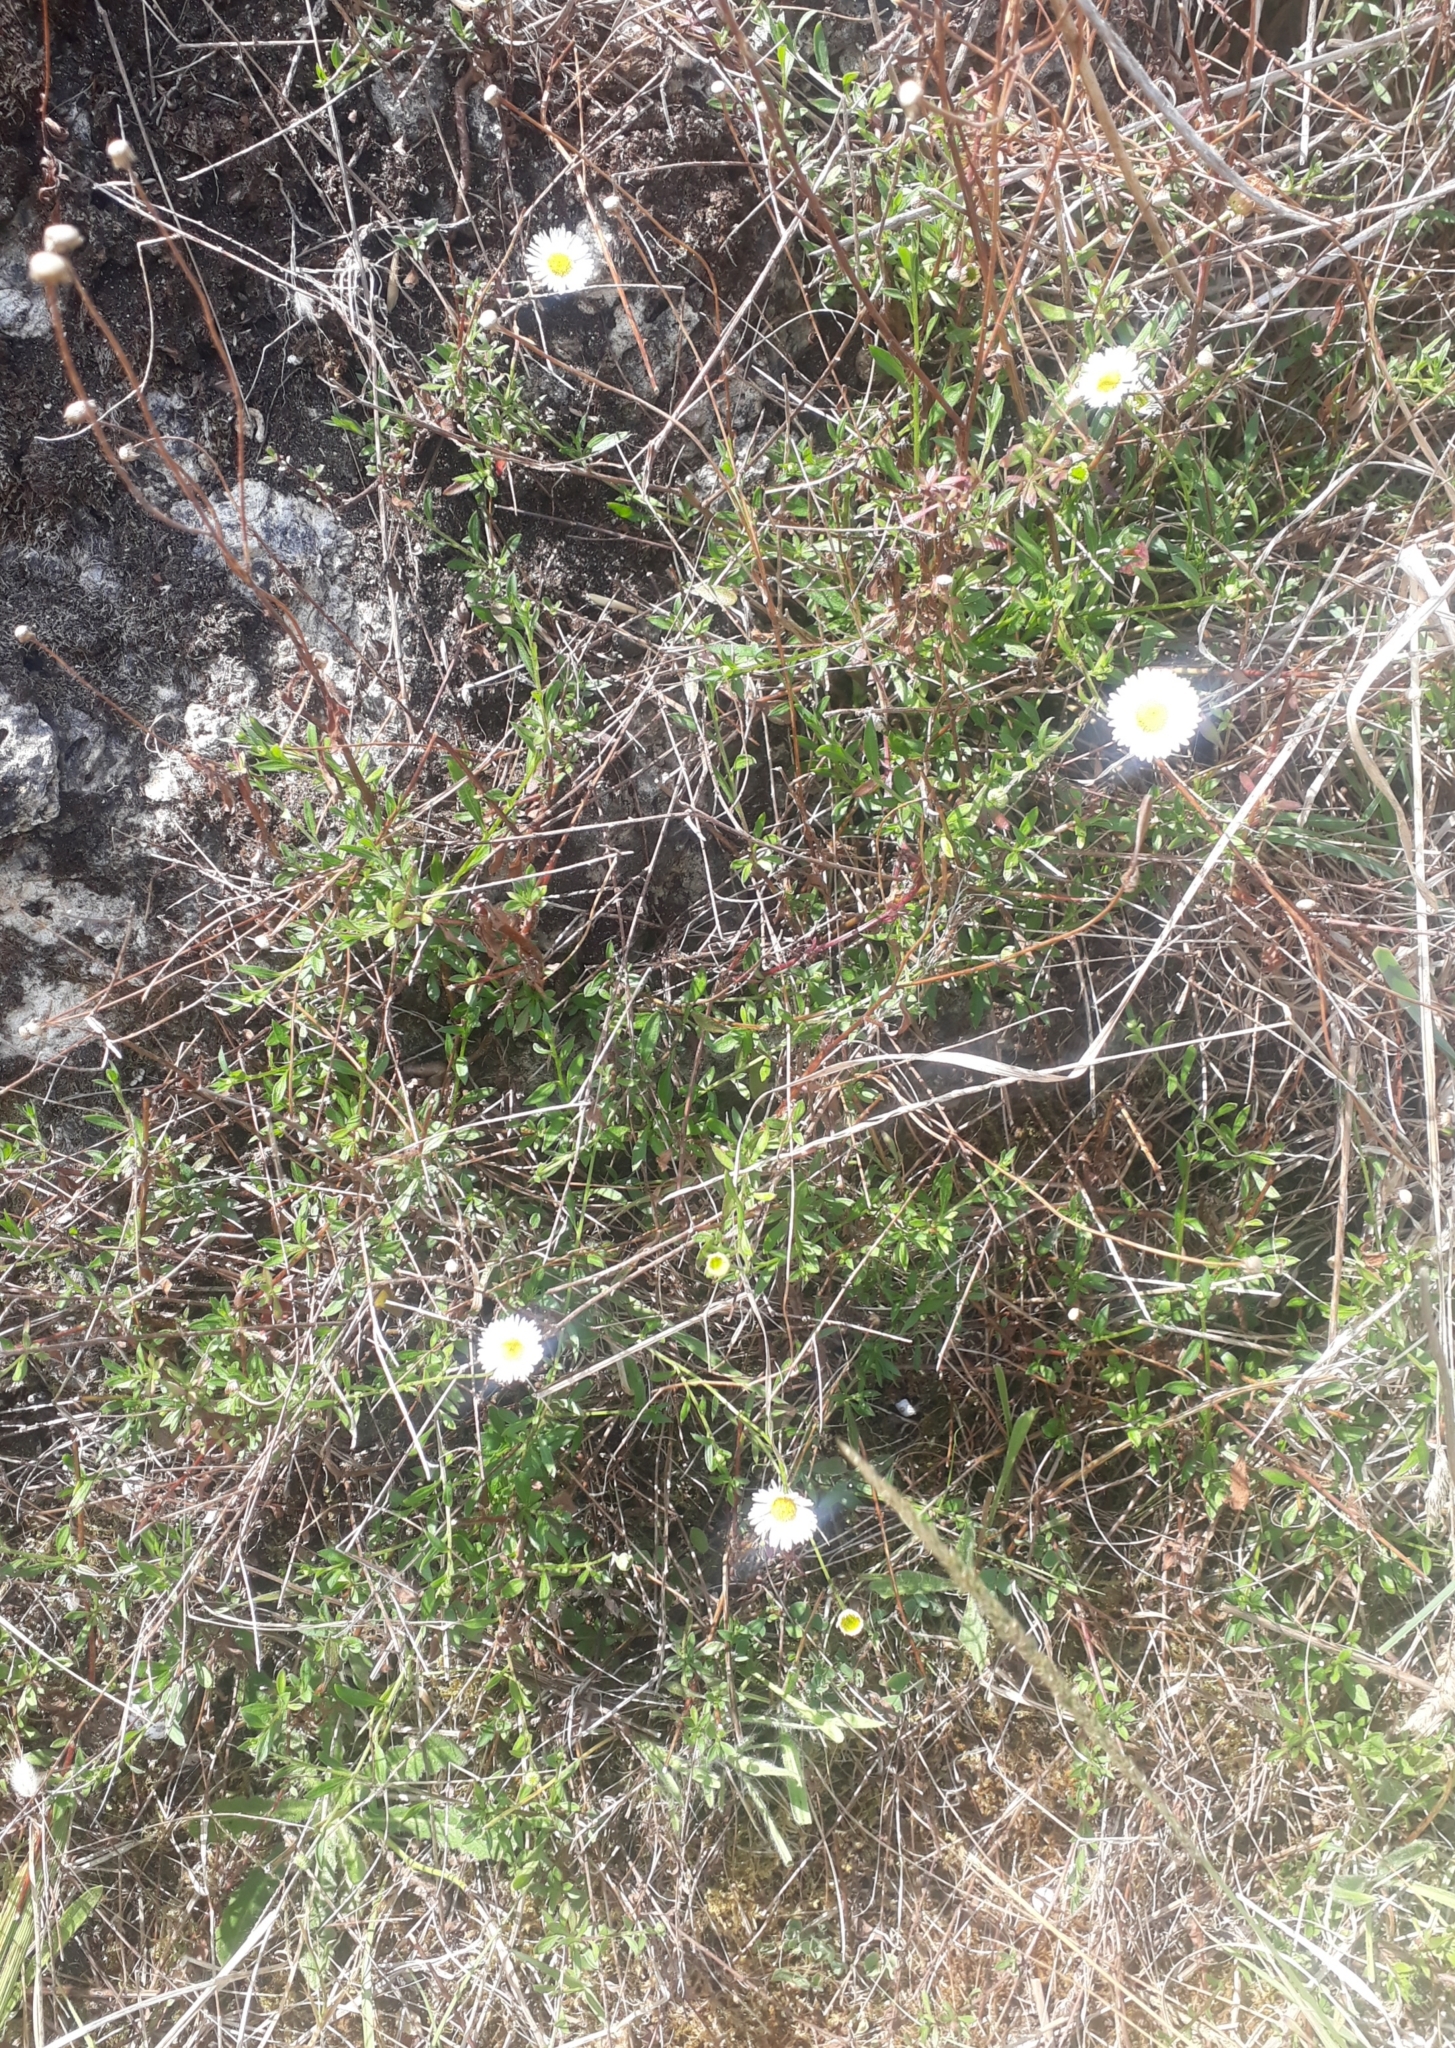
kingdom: Plantae
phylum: Tracheophyta
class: Magnoliopsida
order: Asterales
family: Asteraceae
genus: Erigeron
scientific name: Erigeron karvinskianus
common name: Mexican fleabane
